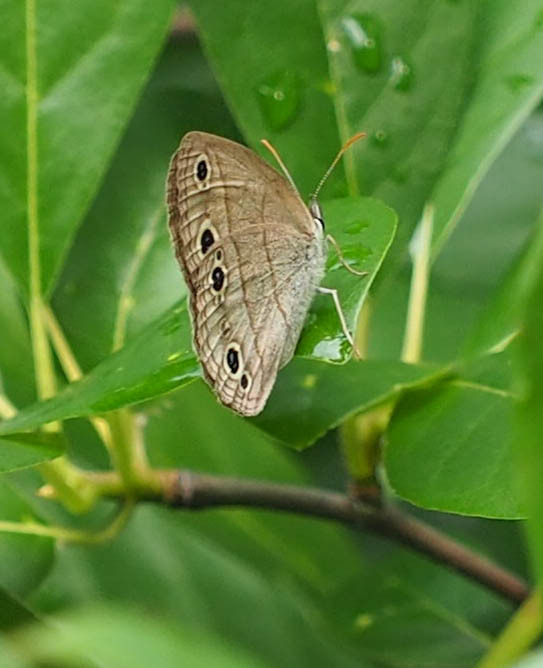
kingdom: Animalia
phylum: Arthropoda
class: Insecta
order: Lepidoptera
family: Nymphalidae
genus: Euptychia
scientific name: Euptychia cymela
